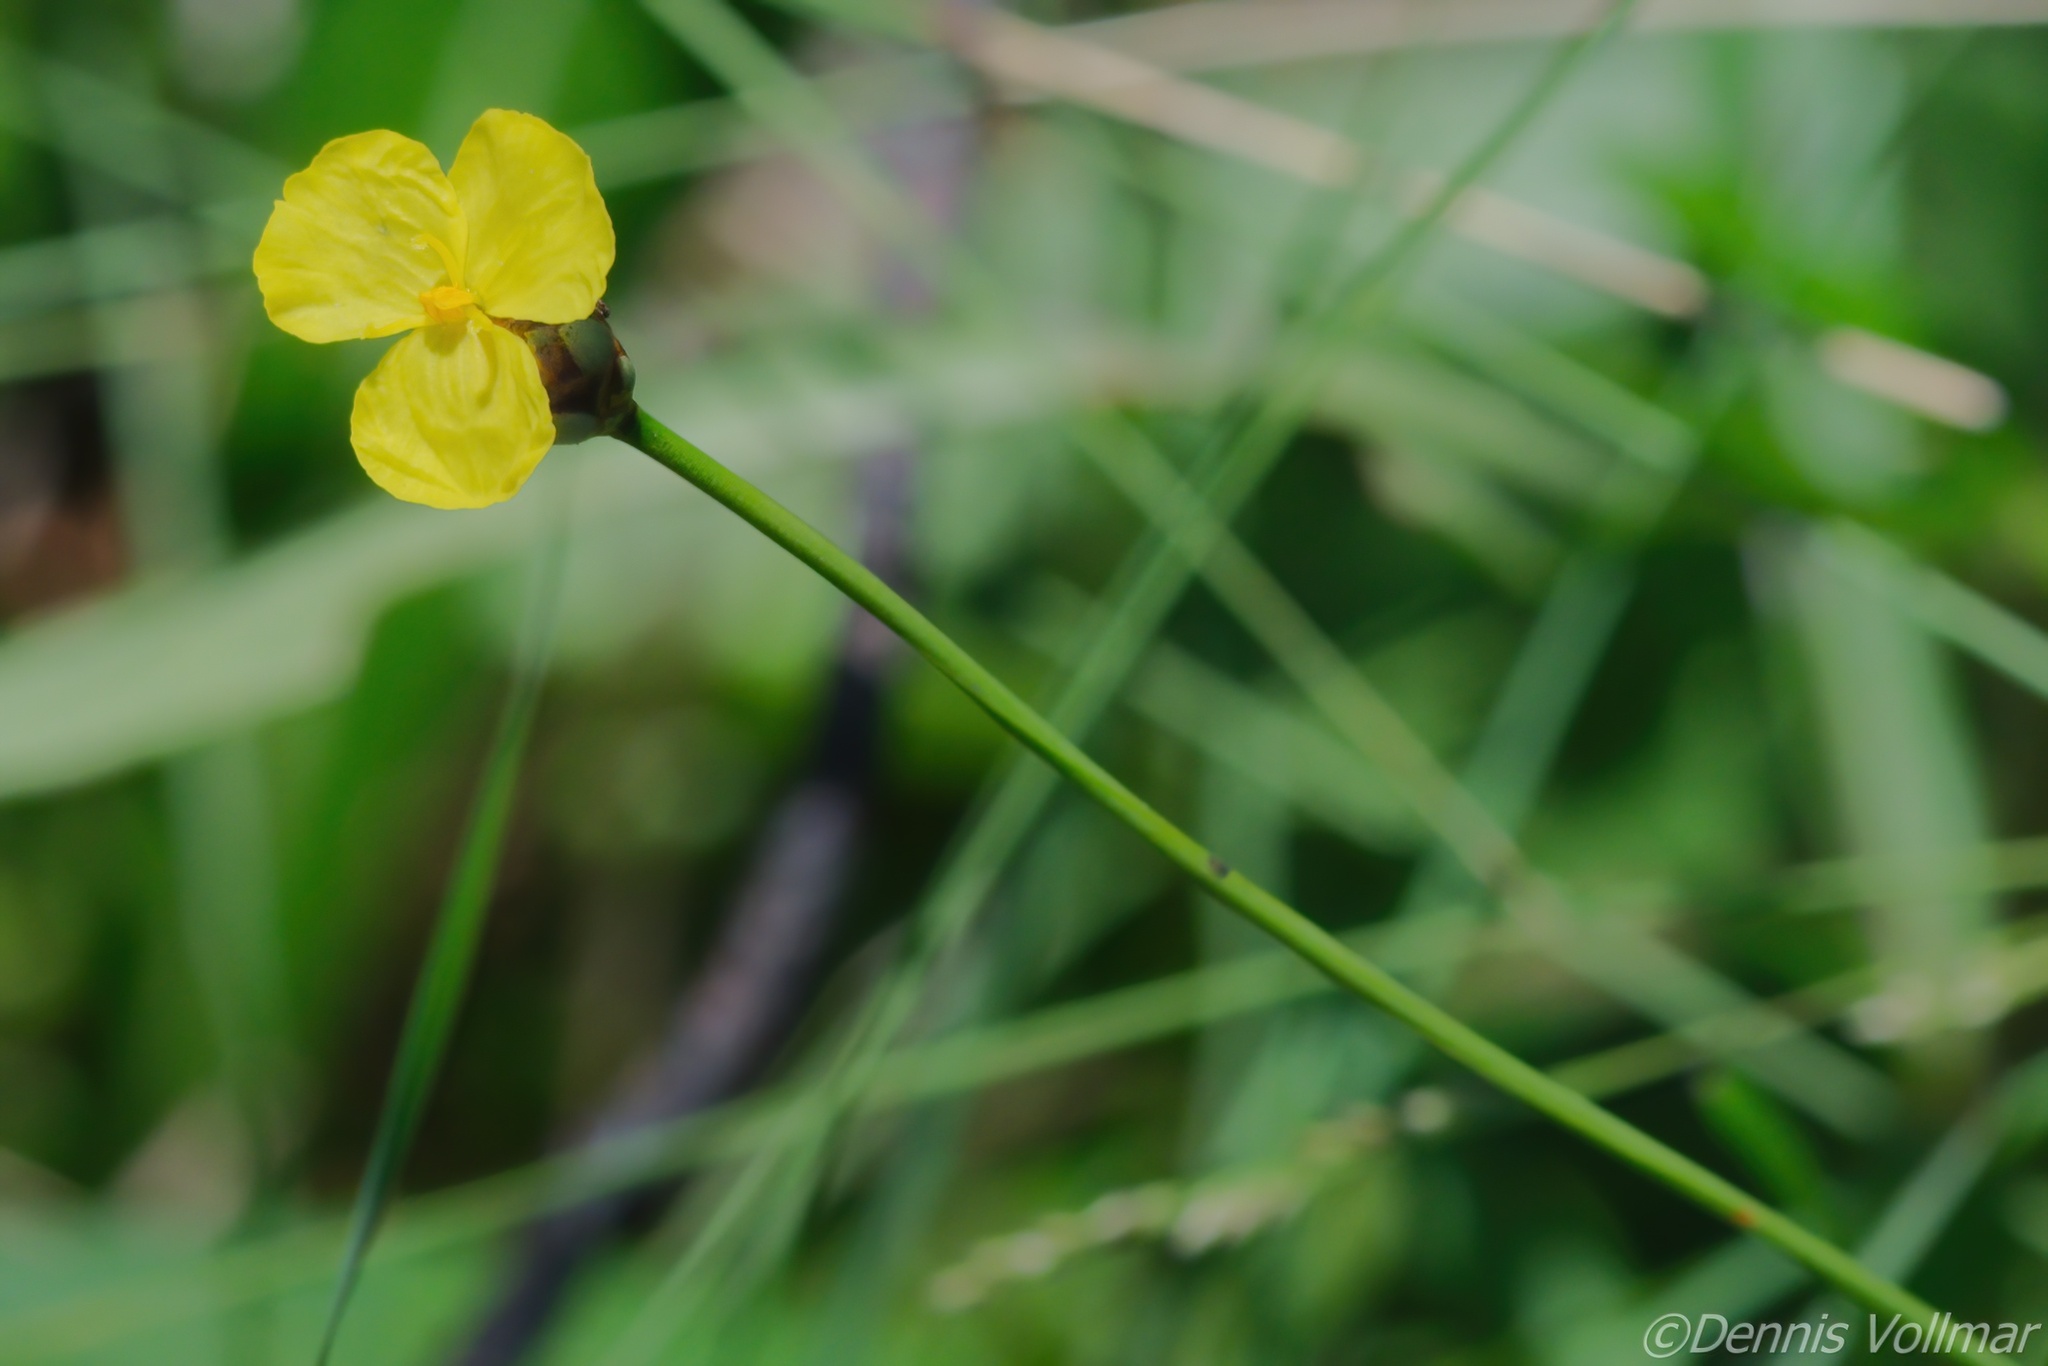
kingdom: Plantae
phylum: Tracheophyta
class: Liliopsida
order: Poales
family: Xyridaceae
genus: Xyris
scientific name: Xyris baldwiniana
